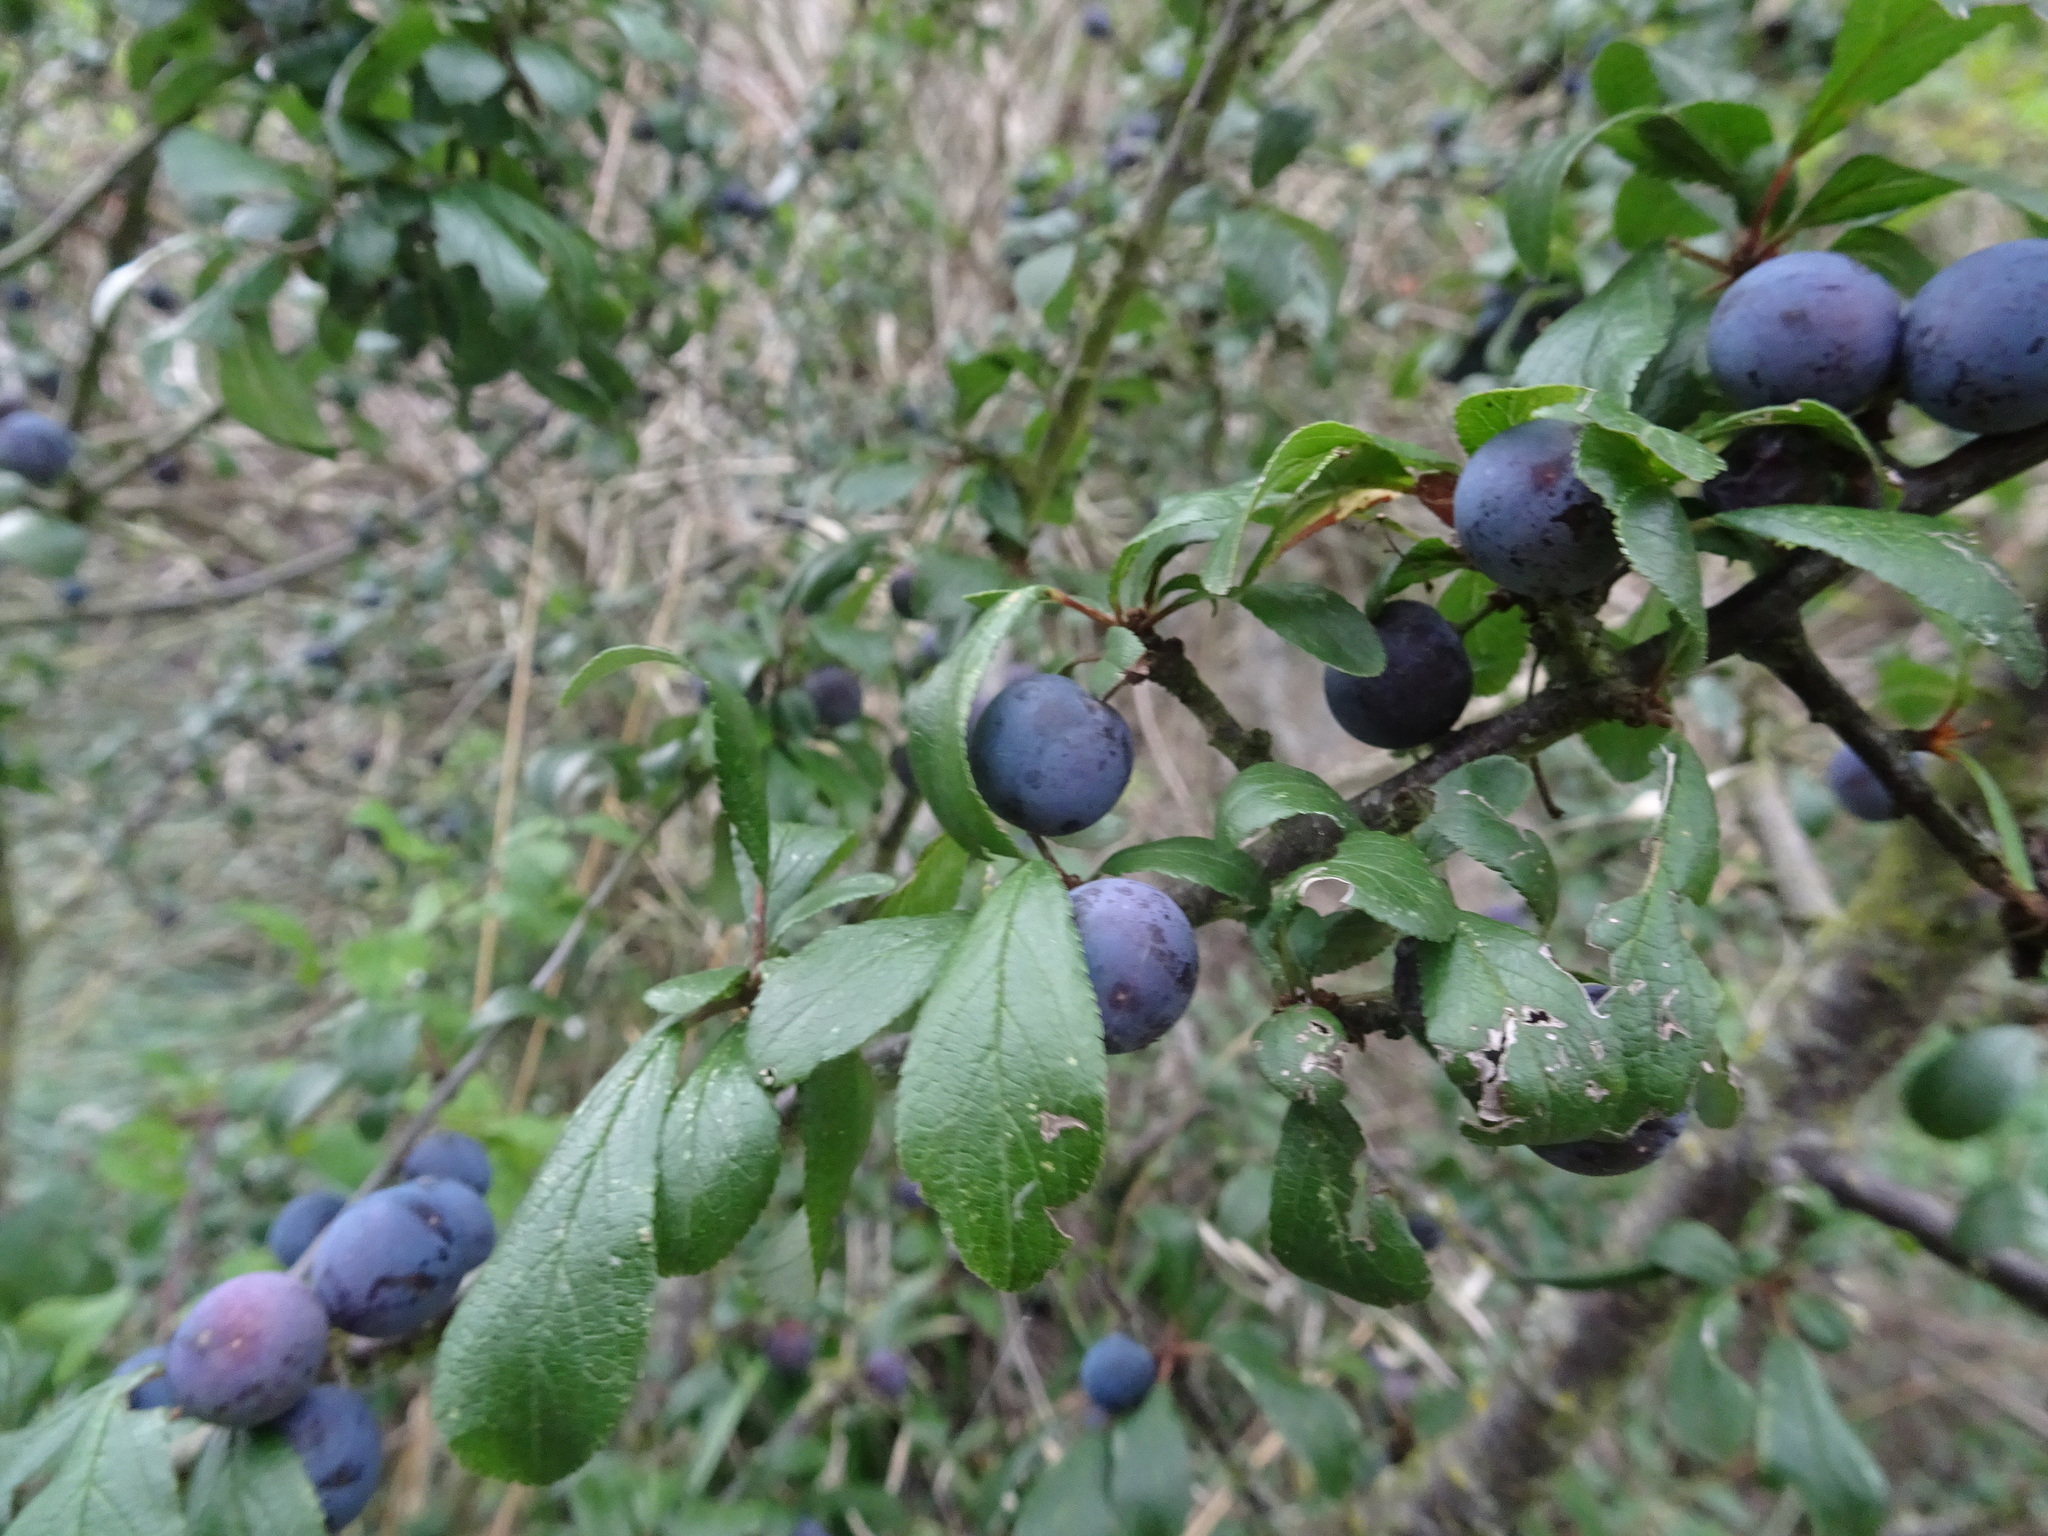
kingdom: Plantae
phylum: Tracheophyta
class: Magnoliopsida
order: Rosales
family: Rosaceae
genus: Prunus
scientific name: Prunus spinosa
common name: Blackthorn
